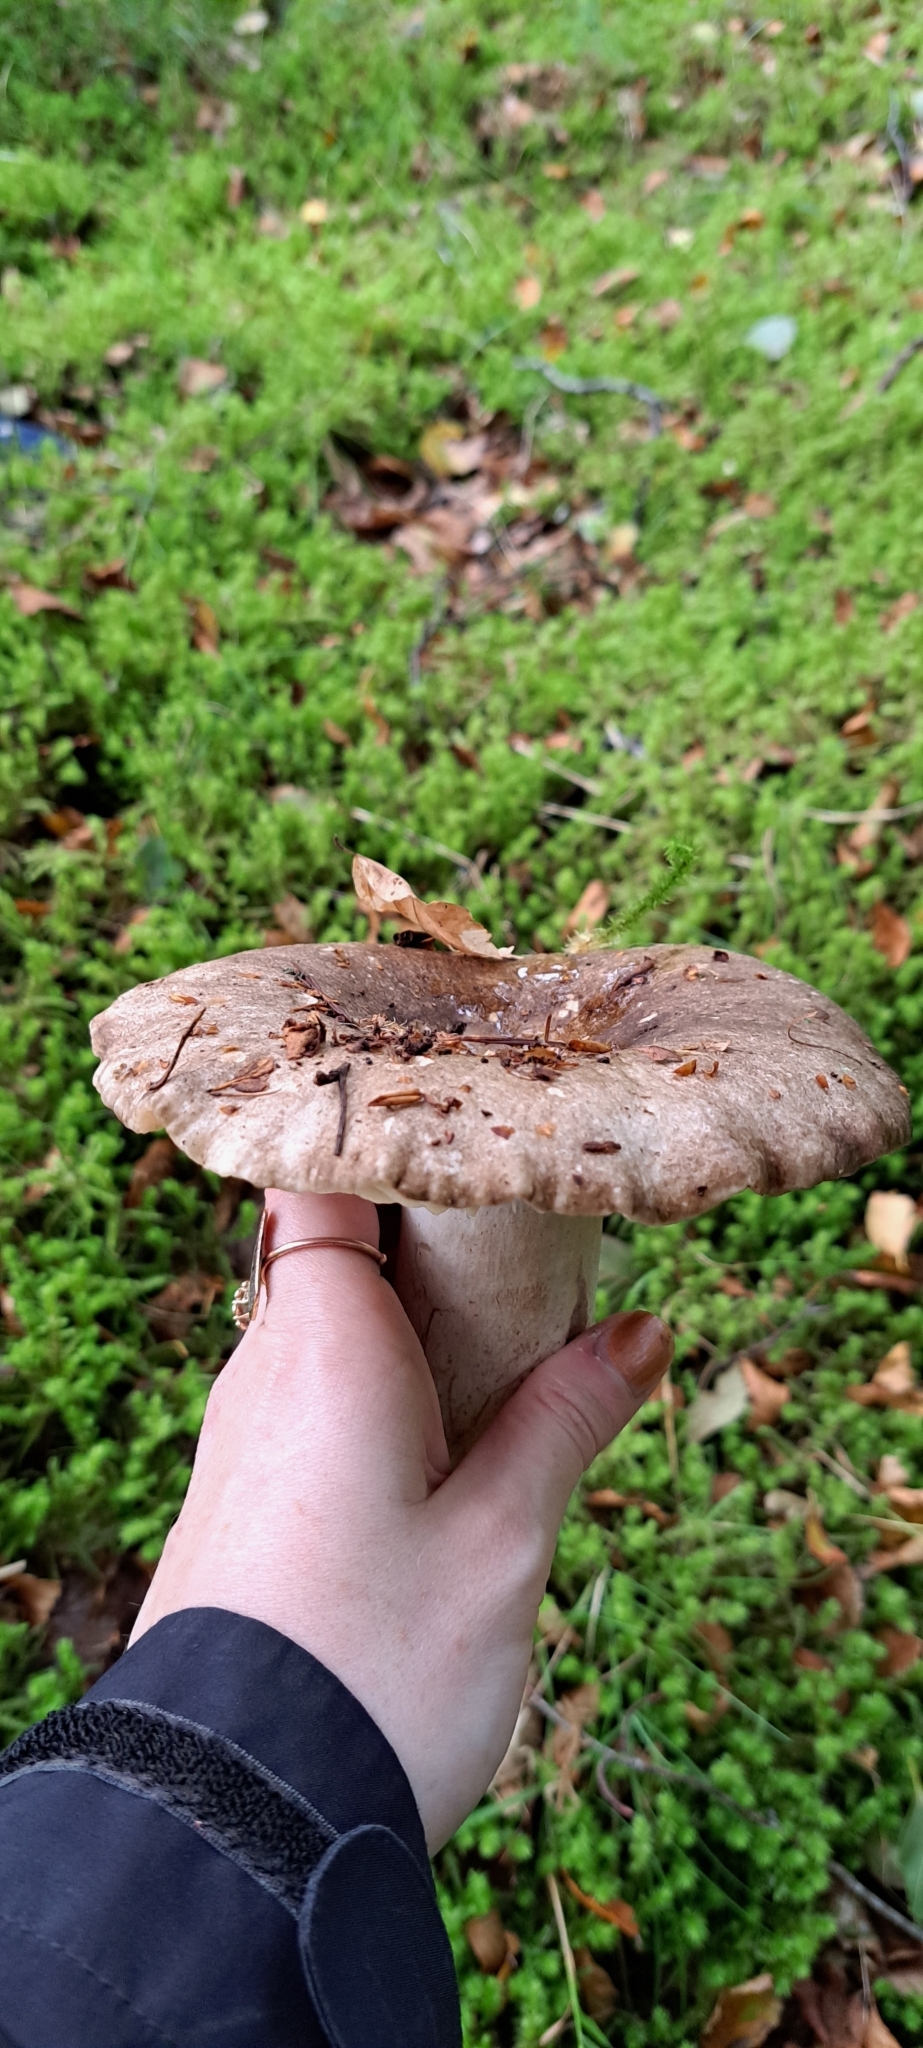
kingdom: Fungi
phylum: Basidiomycota
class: Agaricomycetes
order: Russulales
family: Russulaceae
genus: Russula
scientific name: Russula adusta
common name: Winecork brittlegill
